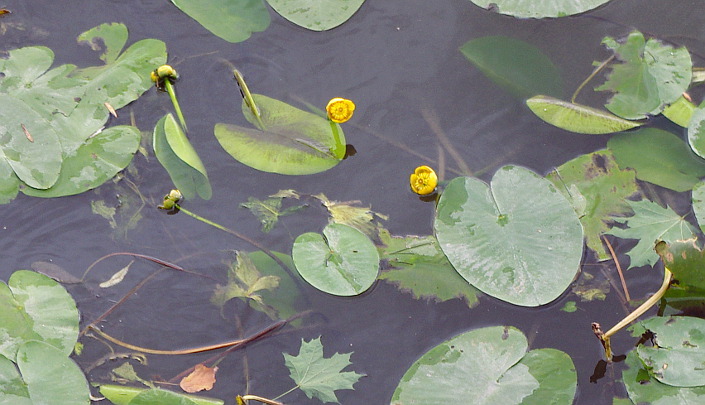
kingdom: Plantae
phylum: Tracheophyta
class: Magnoliopsida
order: Nymphaeales
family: Nymphaeaceae
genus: Nuphar
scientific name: Nuphar lutea
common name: Yellow water-lily
